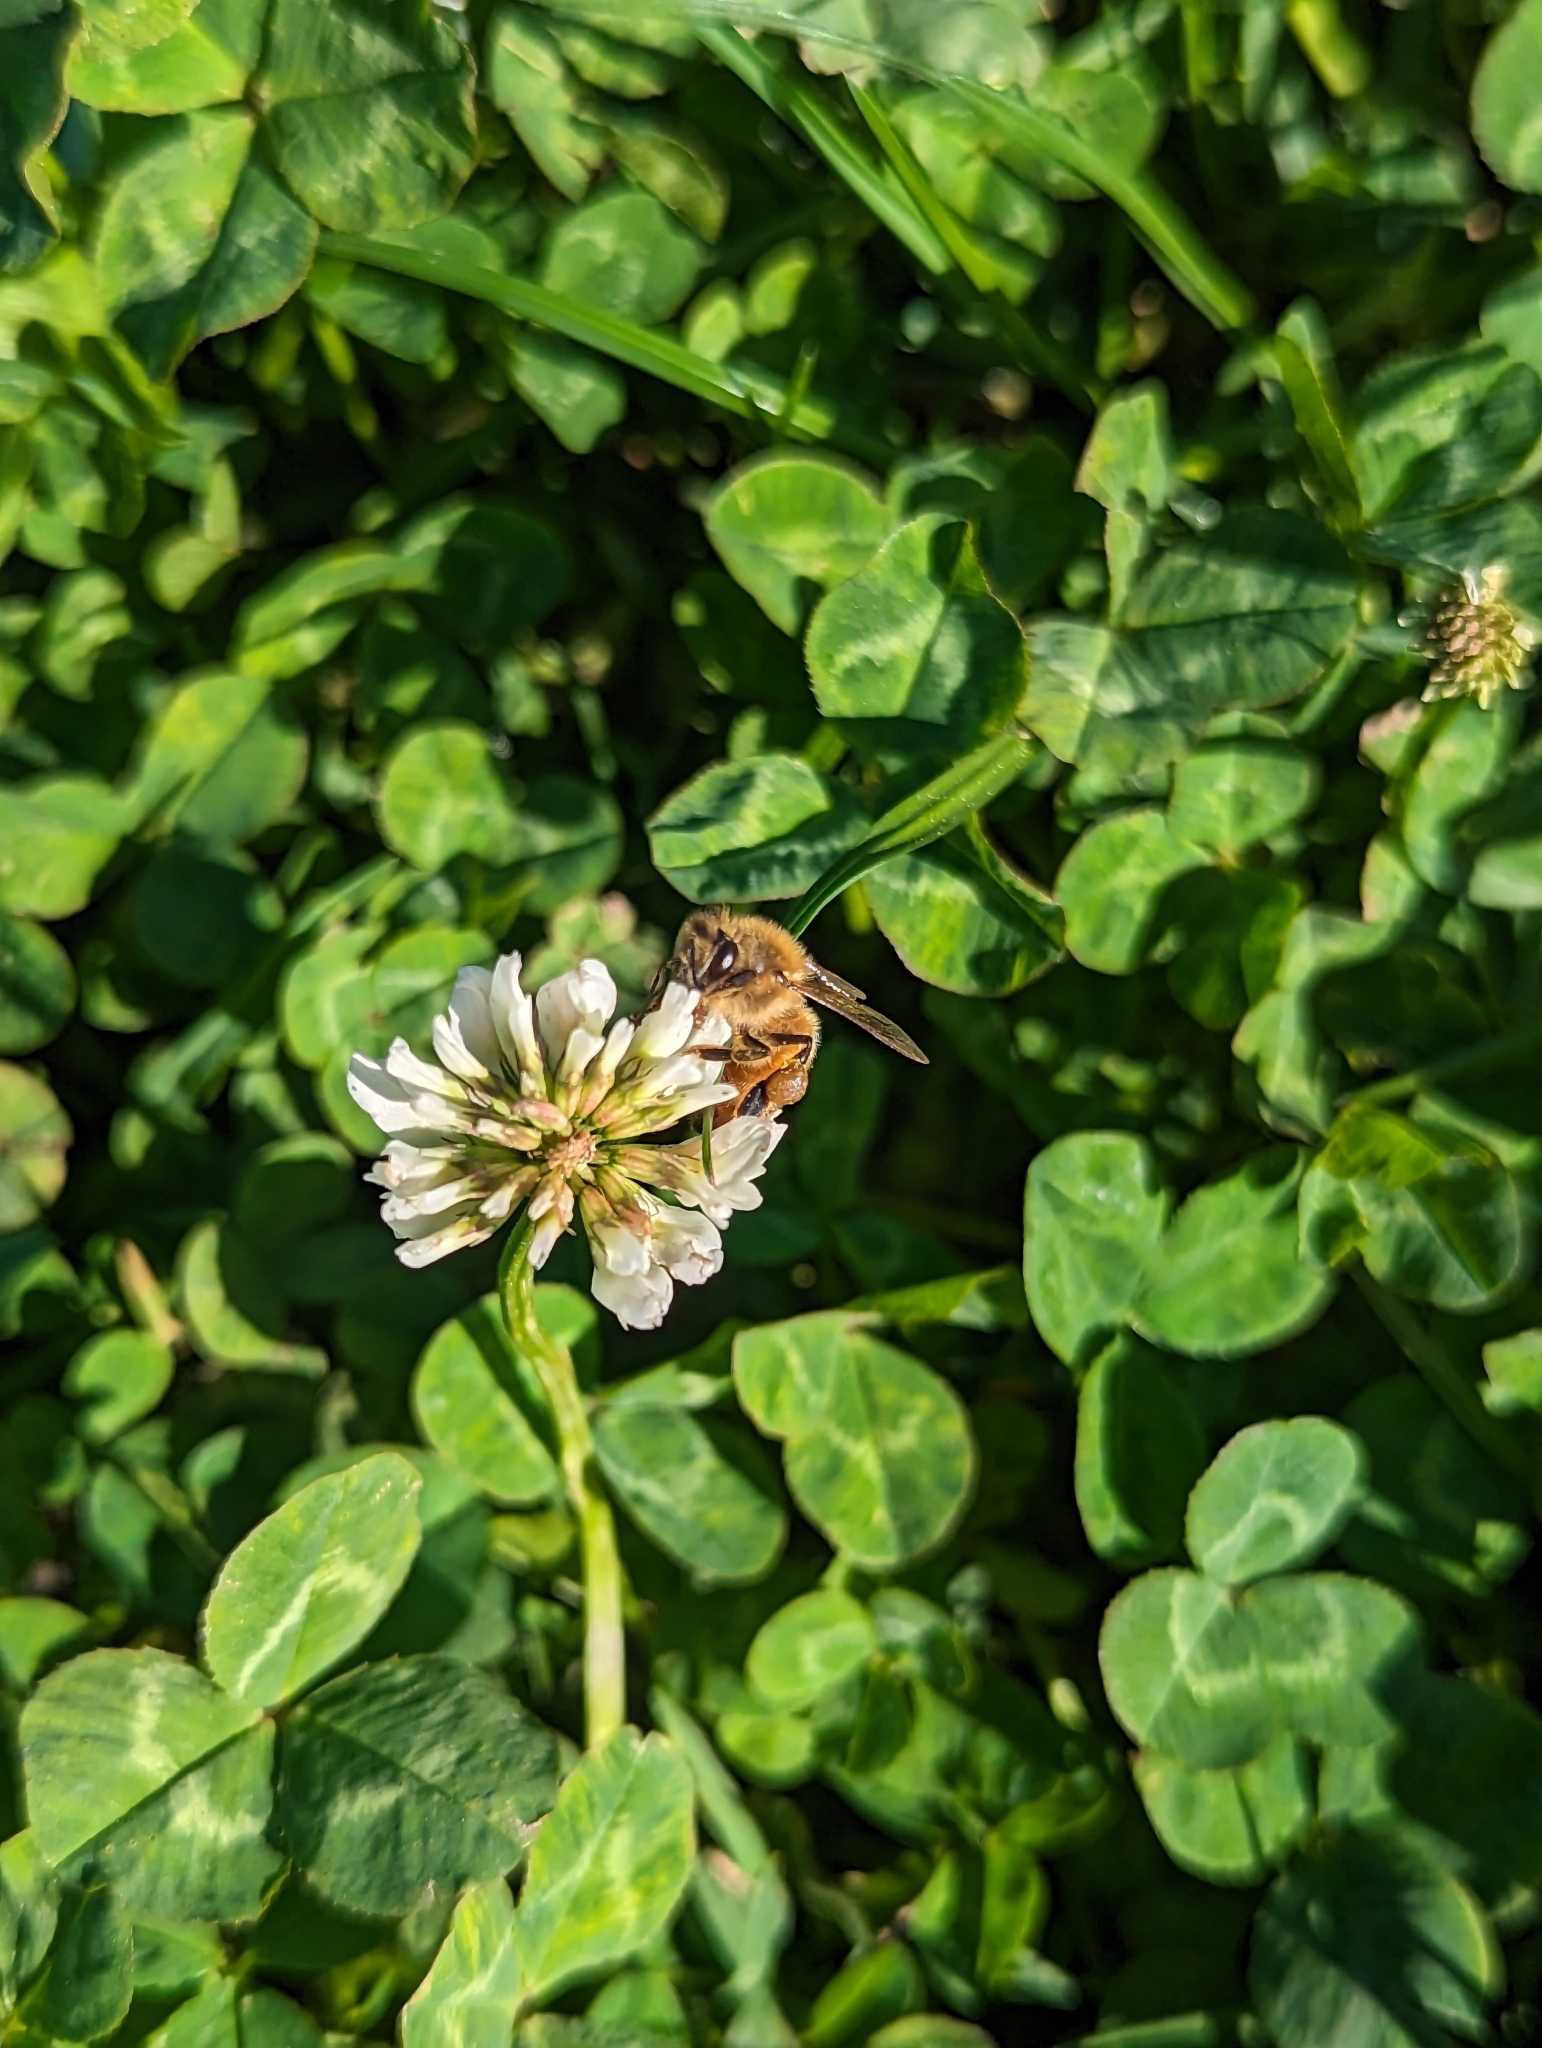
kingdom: Plantae
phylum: Tracheophyta
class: Magnoliopsida
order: Fabales
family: Fabaceae
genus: Trifolium
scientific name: Trifolium repens
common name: White clover
